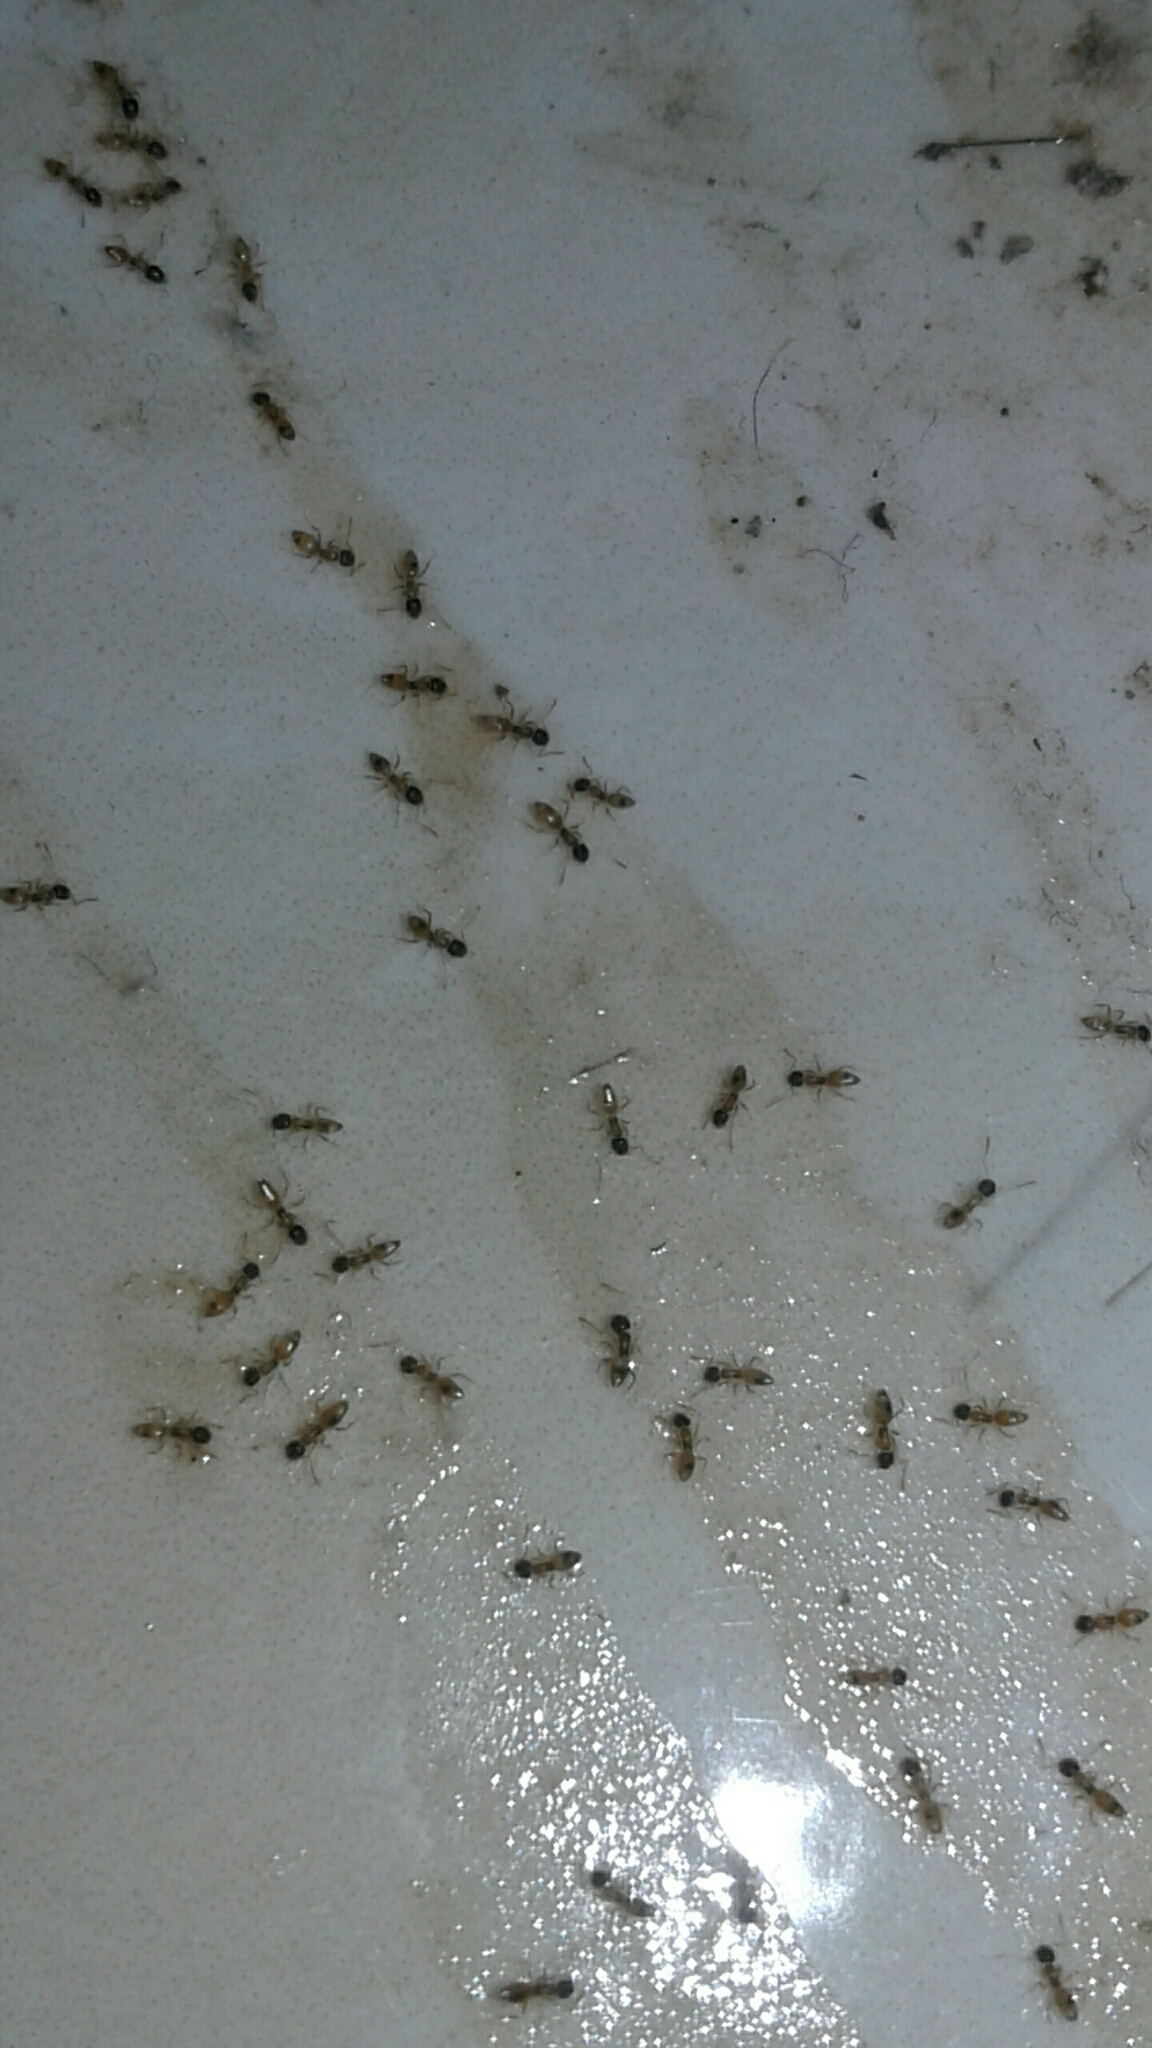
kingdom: Animalia
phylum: Arthropoda
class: Insecta
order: Hymenoptera
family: Formicidae
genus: Tapinoma
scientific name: Tapinoma melanocephalum
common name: Ghost ant
